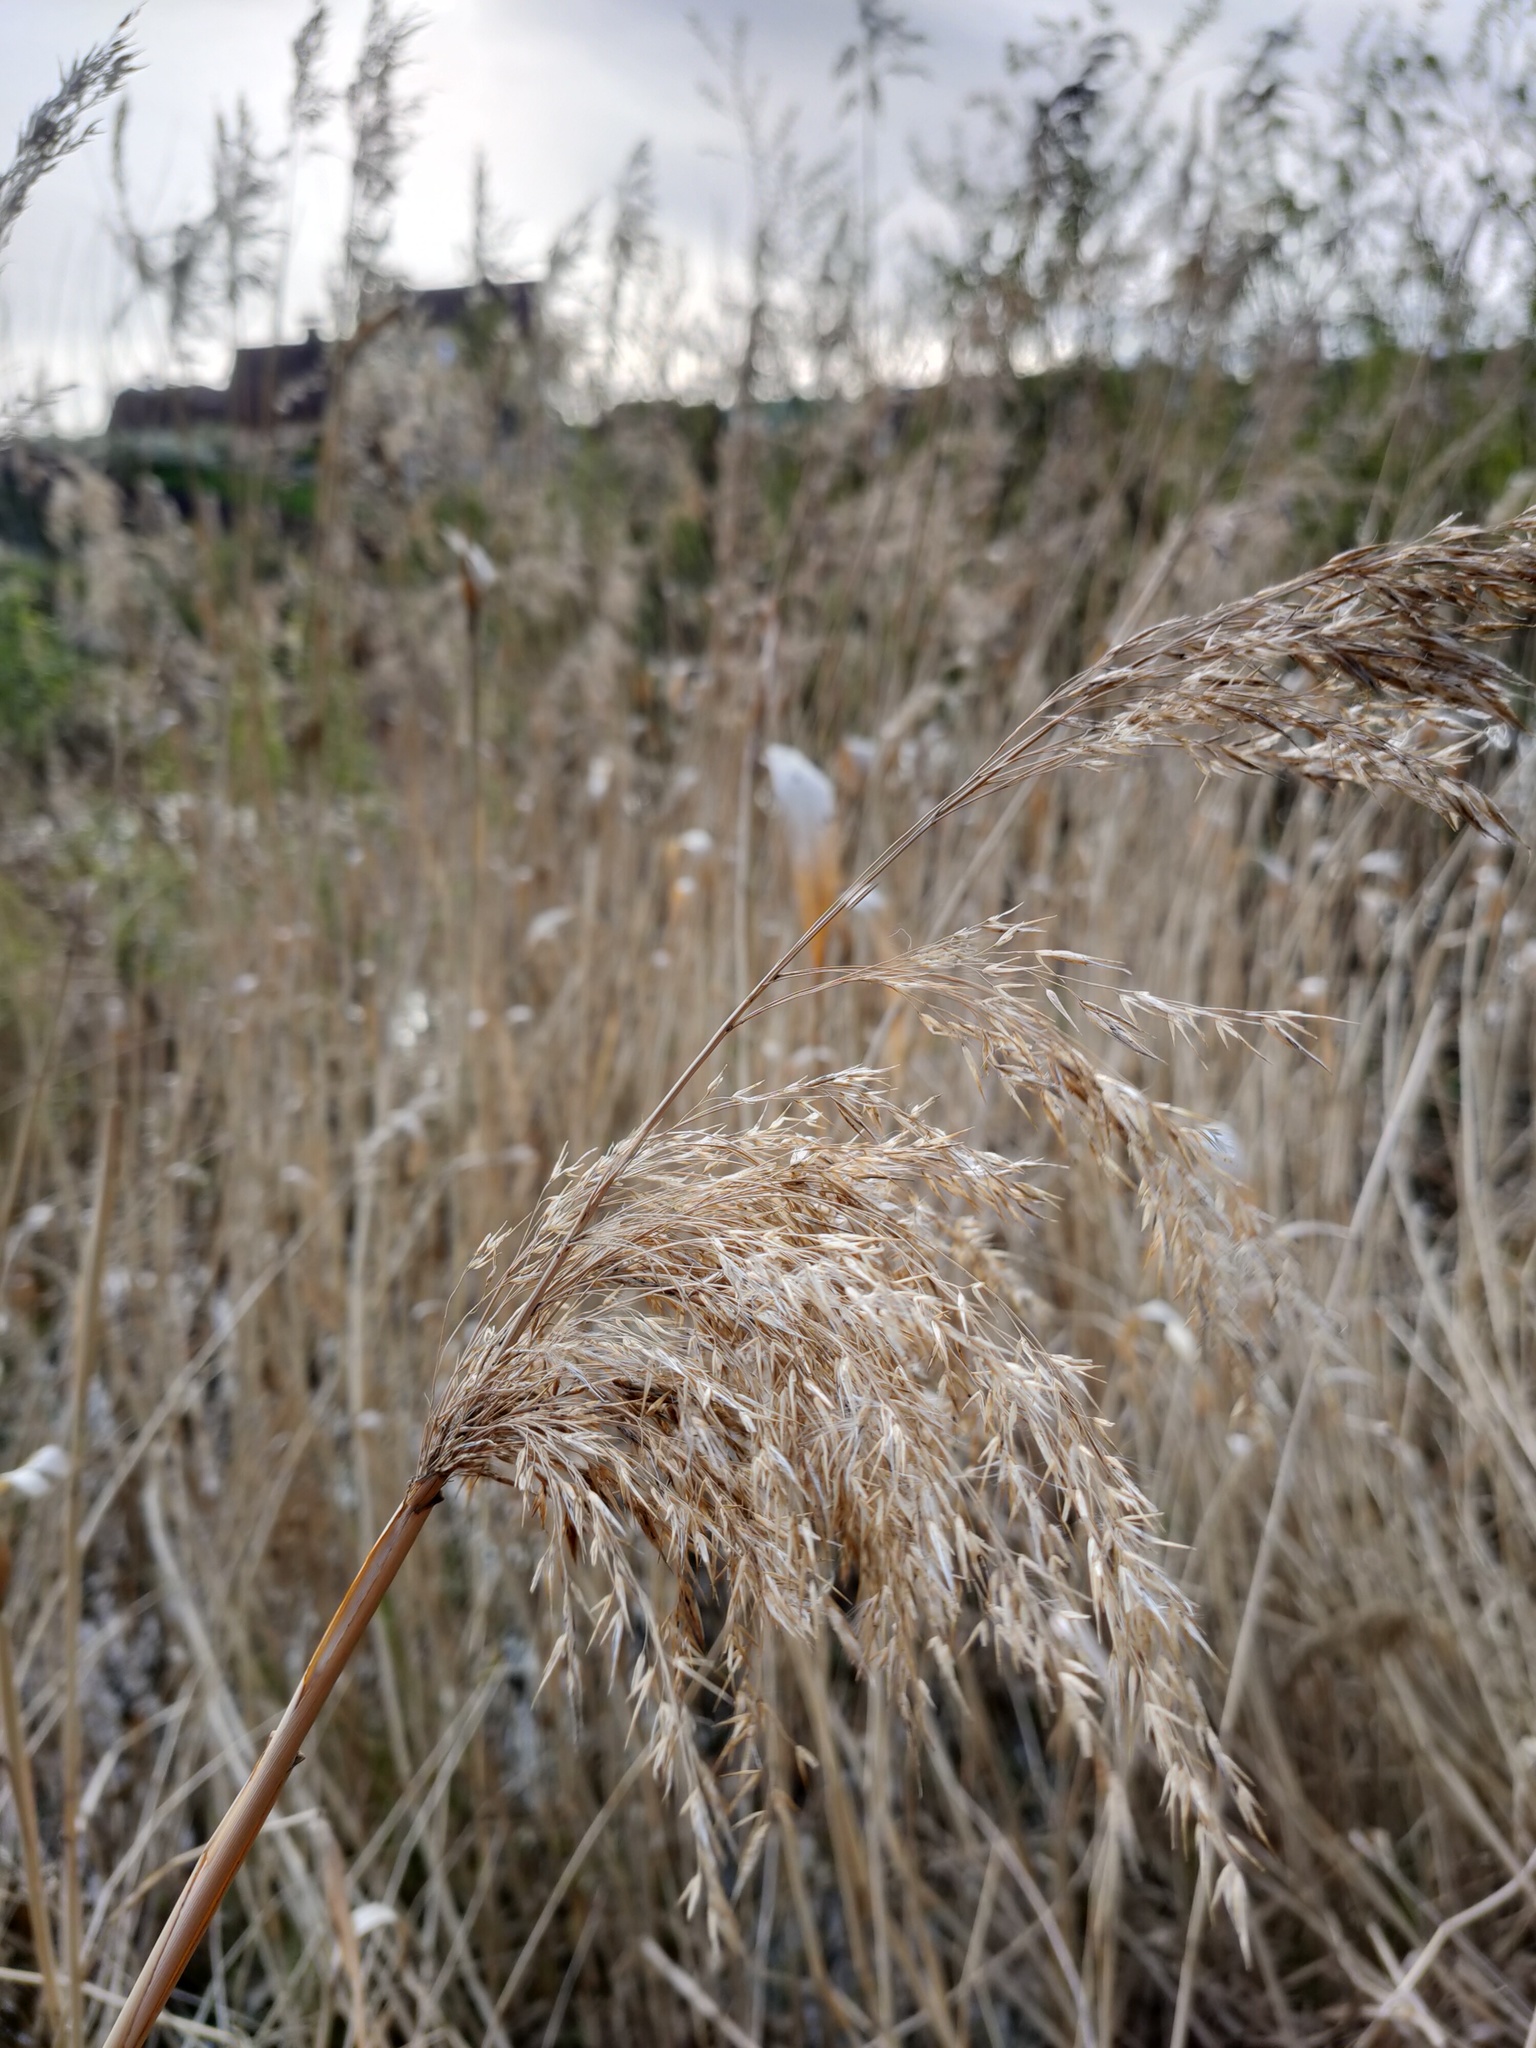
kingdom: Plantae
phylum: Tracheophyta
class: Liliopsida
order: Poales
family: Poaceae
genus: Phragmites
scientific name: Phragmites australis
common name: Common reed
